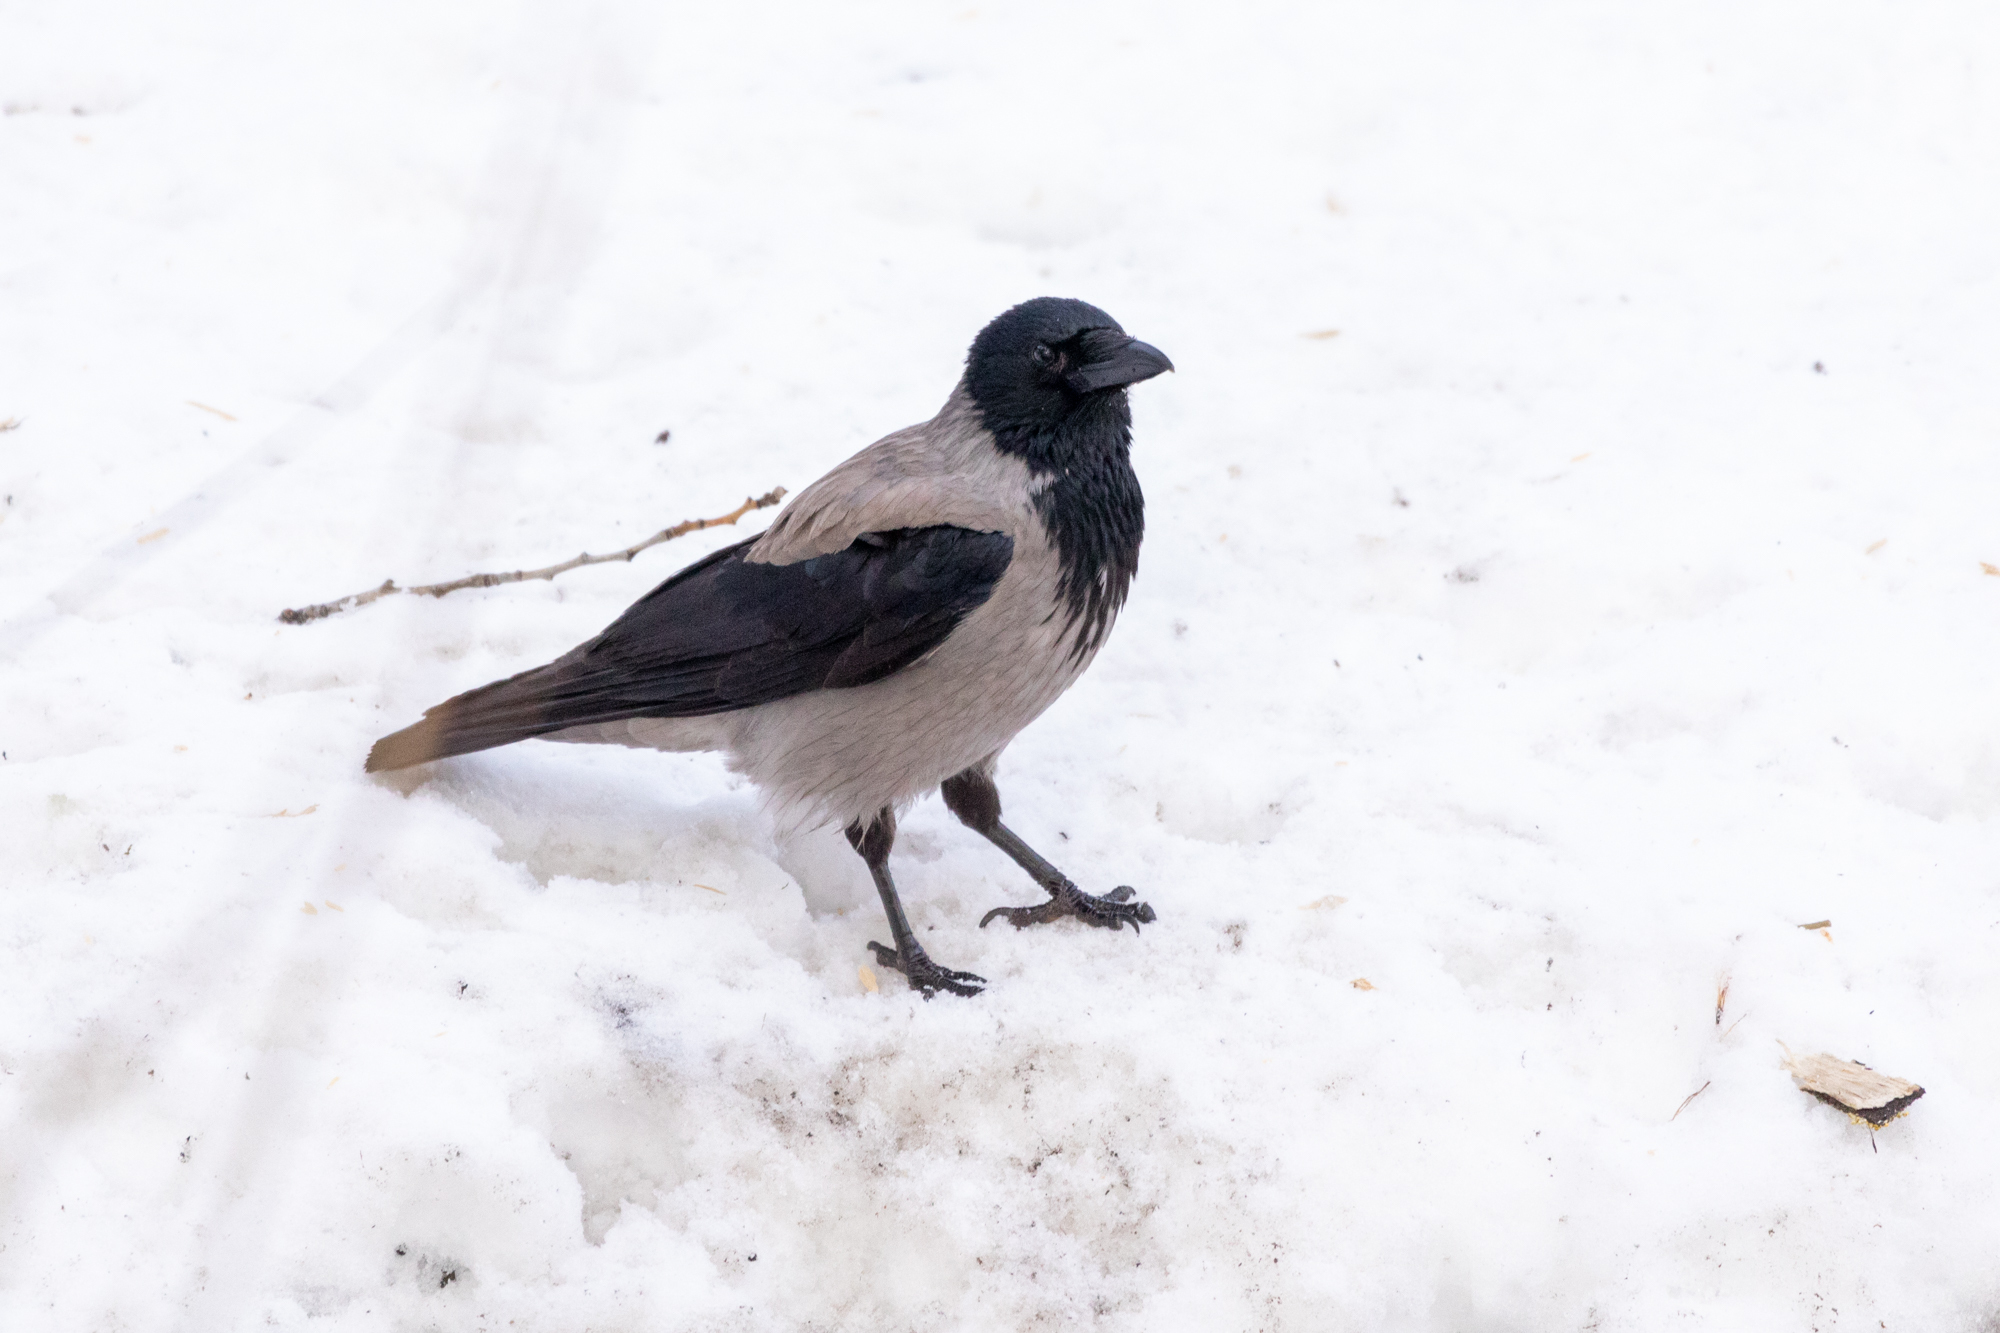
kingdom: Animalia
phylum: Chordata
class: Aves
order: Passeriformes
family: Corvidae
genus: Corvus
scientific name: Corvus cornix
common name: Hooded crow
